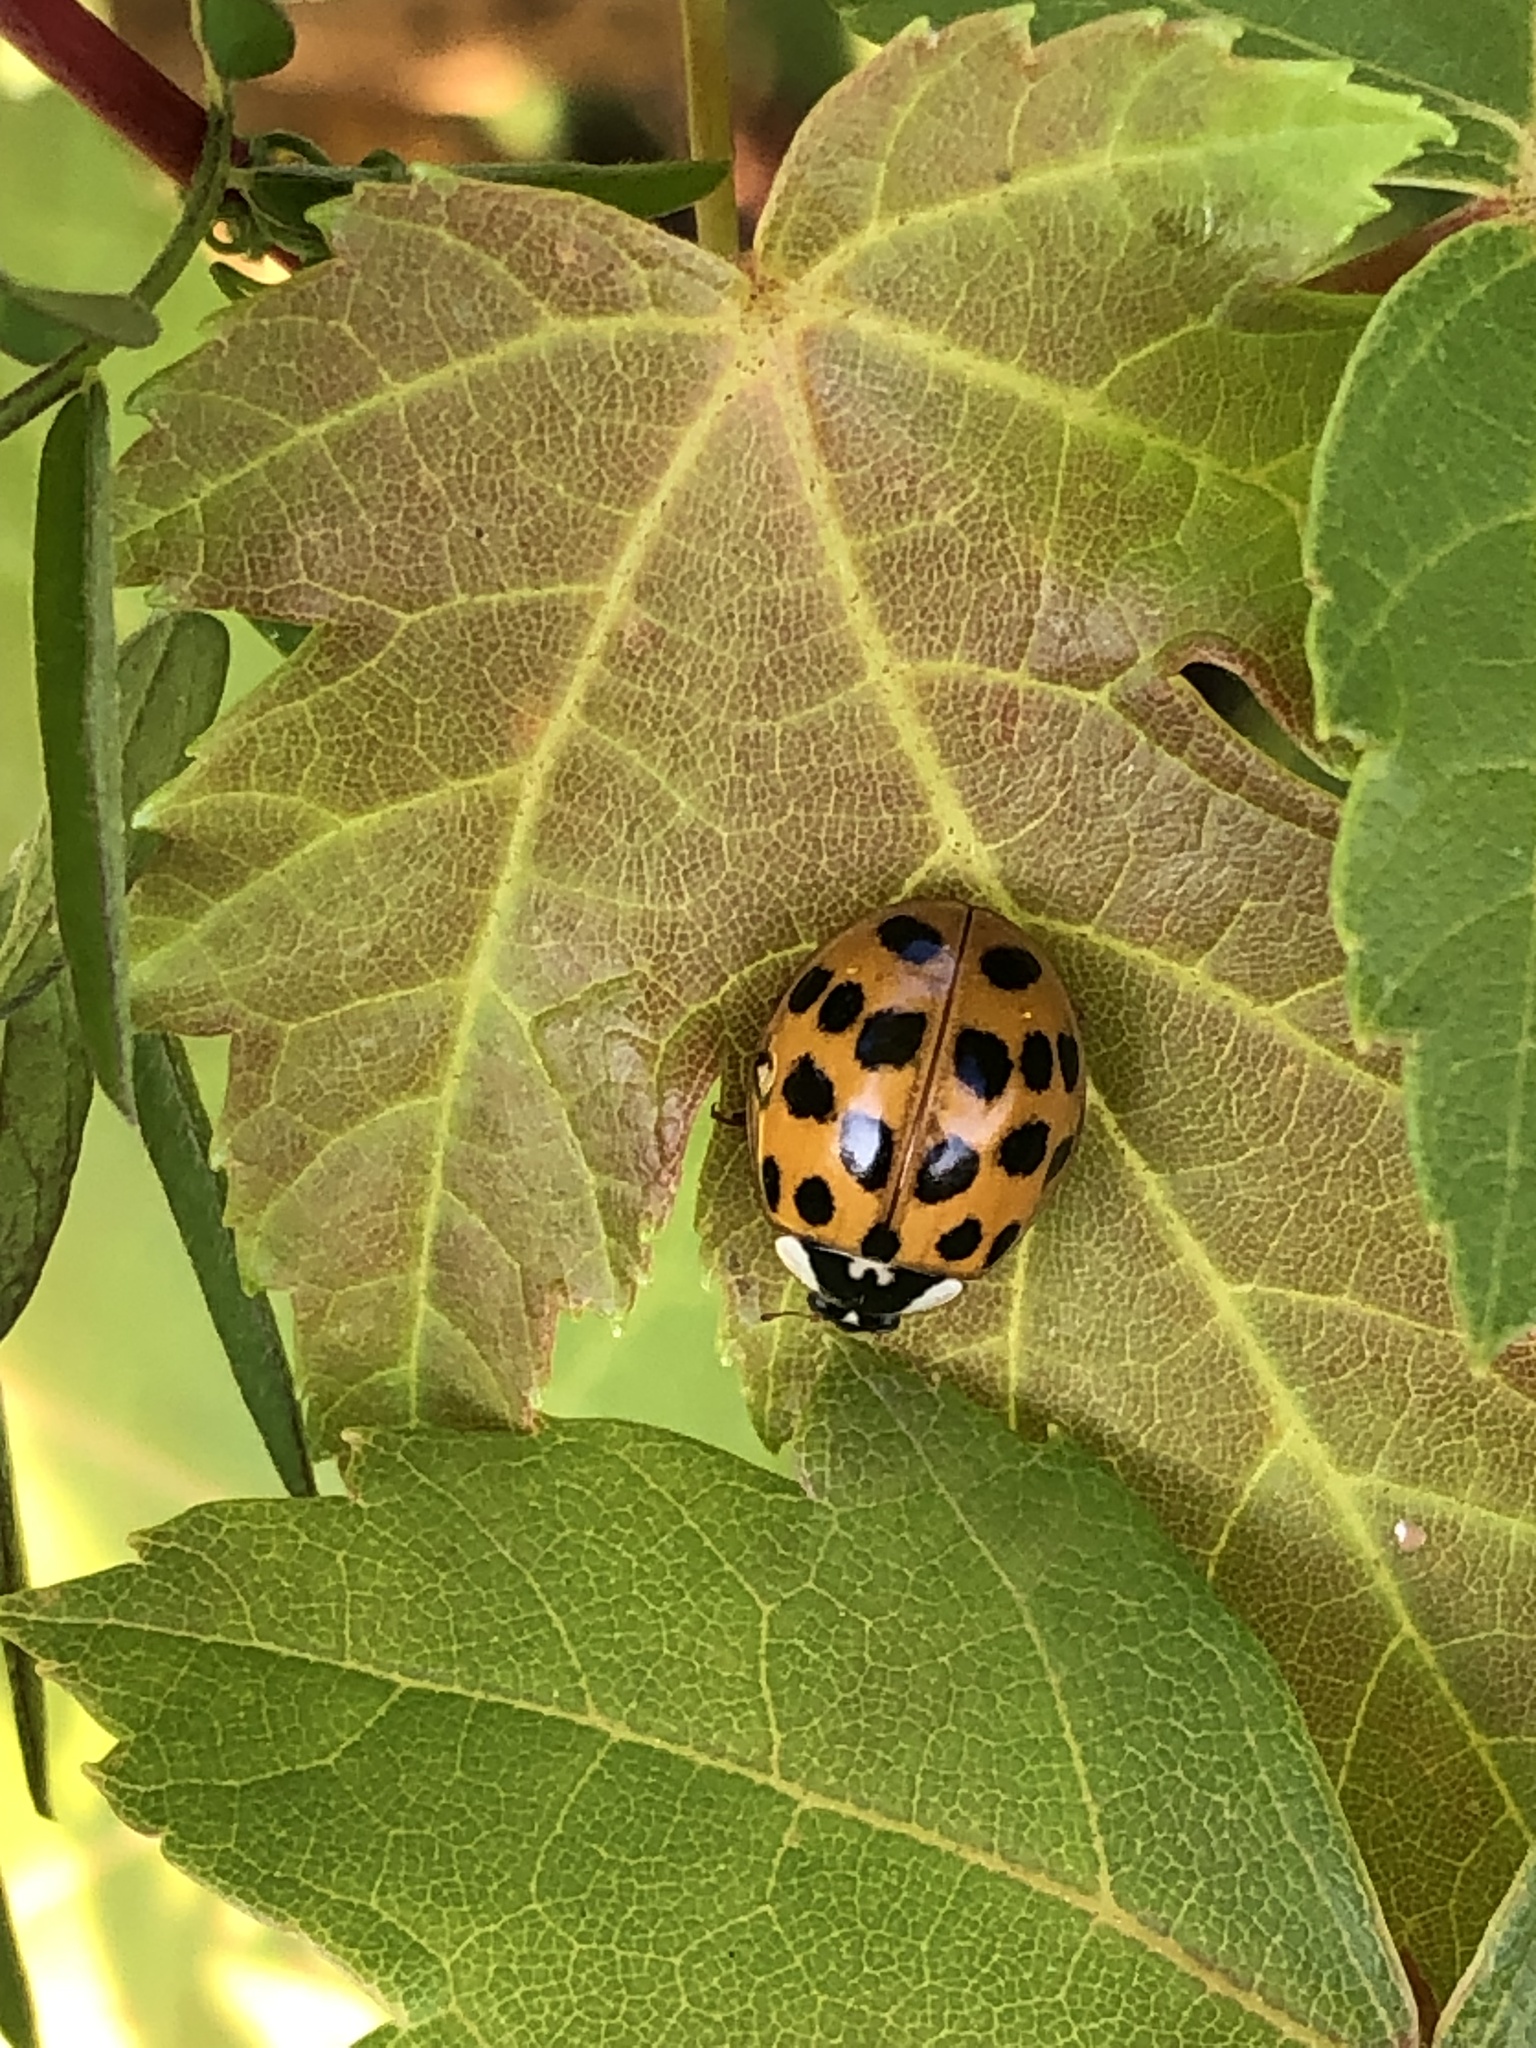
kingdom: Animalia
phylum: Arthropoda
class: Insecta
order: Coleoptera
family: Coccinellidae
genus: Harmonia
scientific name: Harmonia axyridis
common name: Harlequin ladybird
